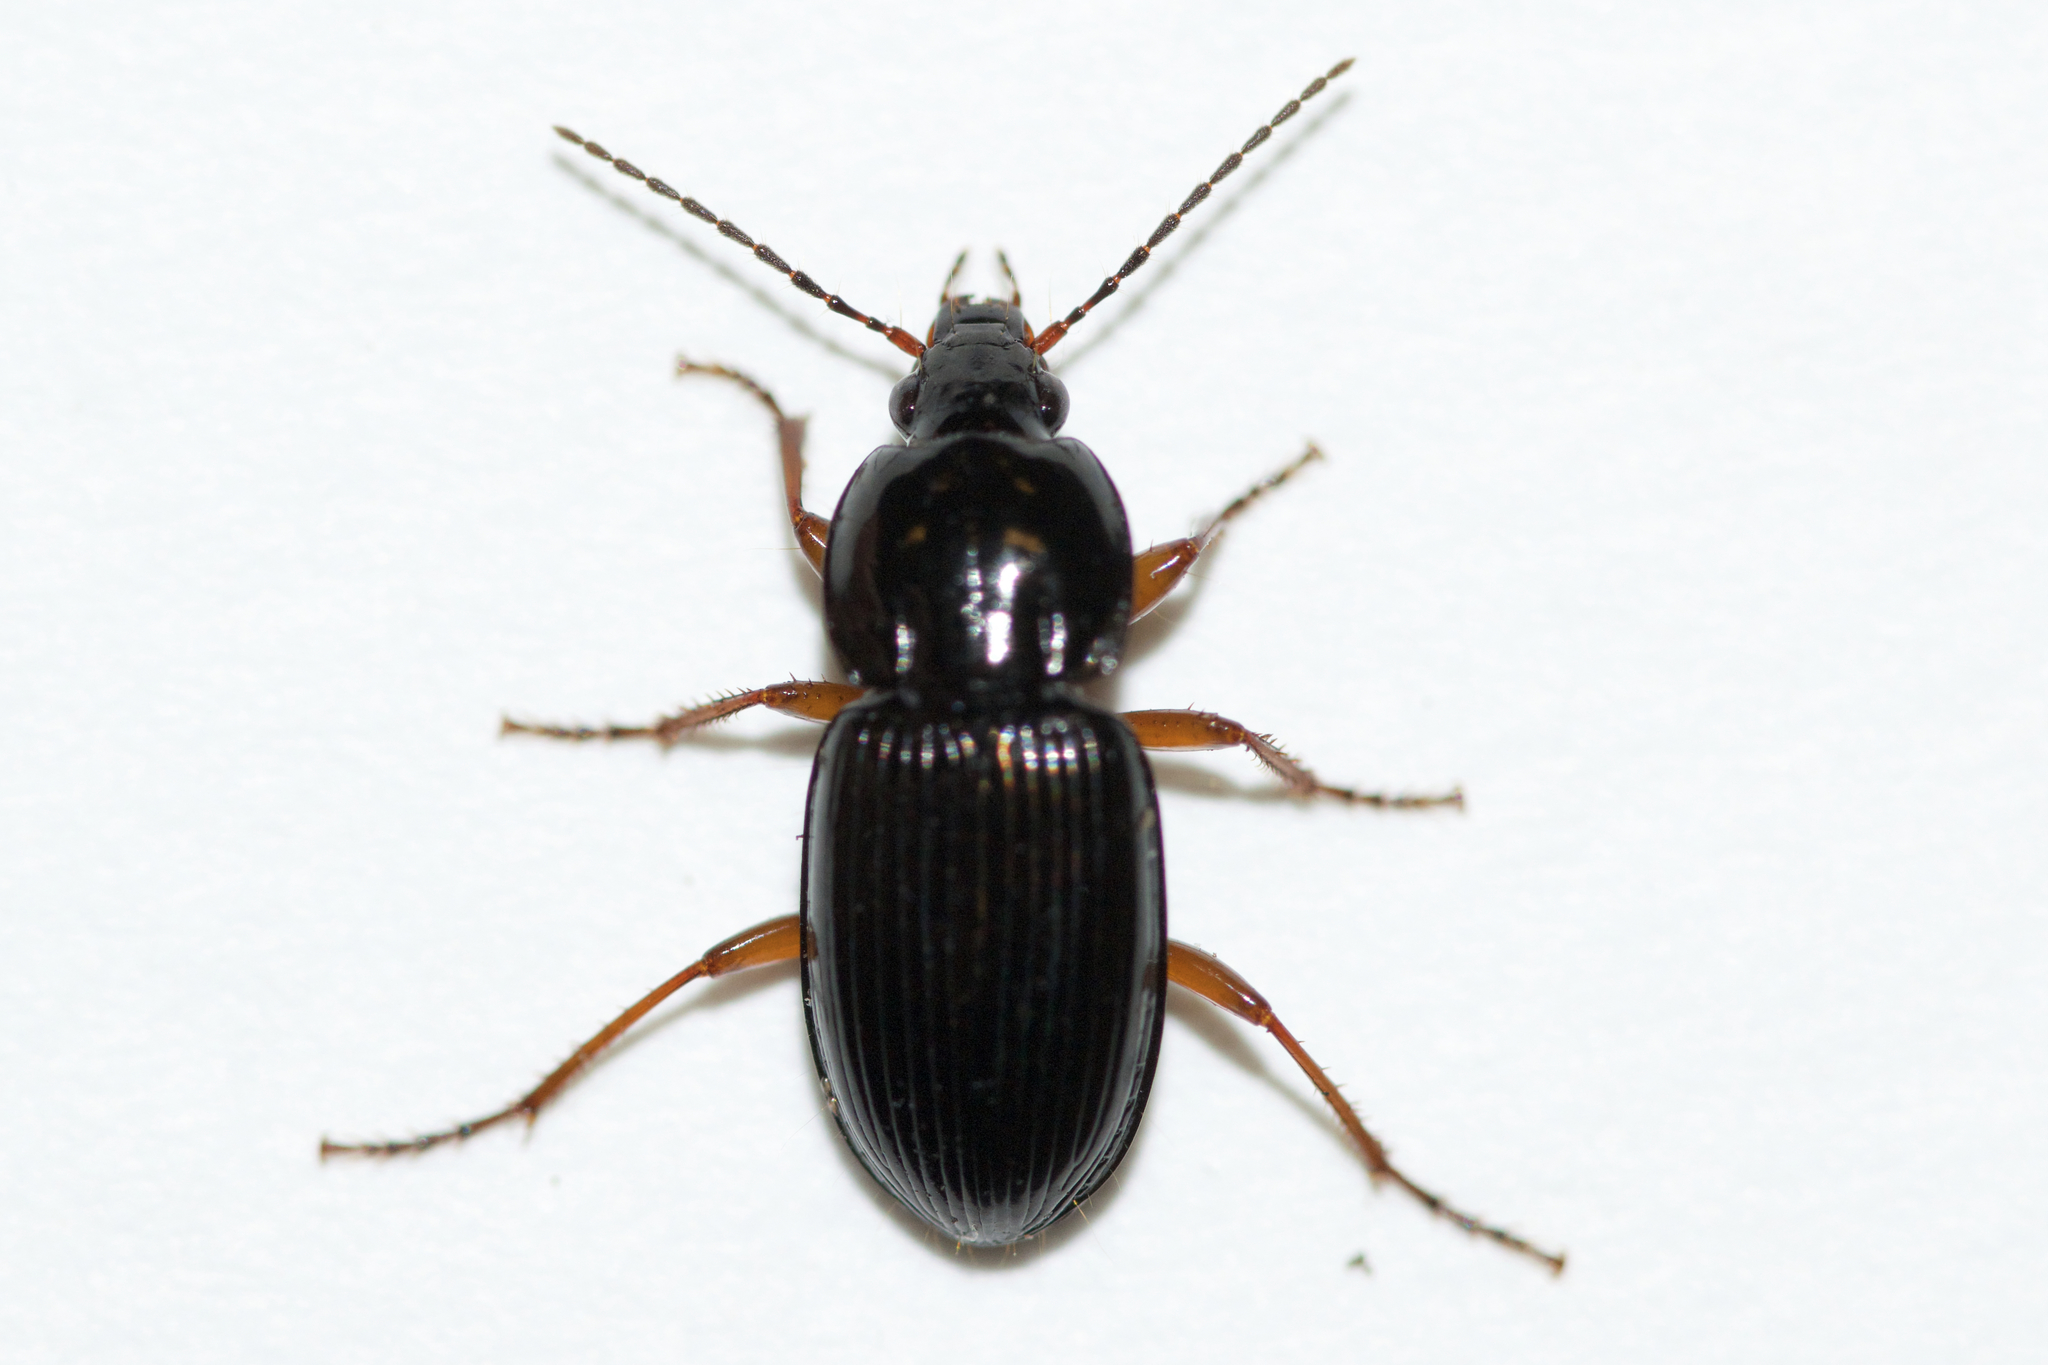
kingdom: Animalia
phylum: Arthropoda
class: Insecta
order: Coleoptera
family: Carabidae
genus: Pterostichus
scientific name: Pterostichus commutabilis
